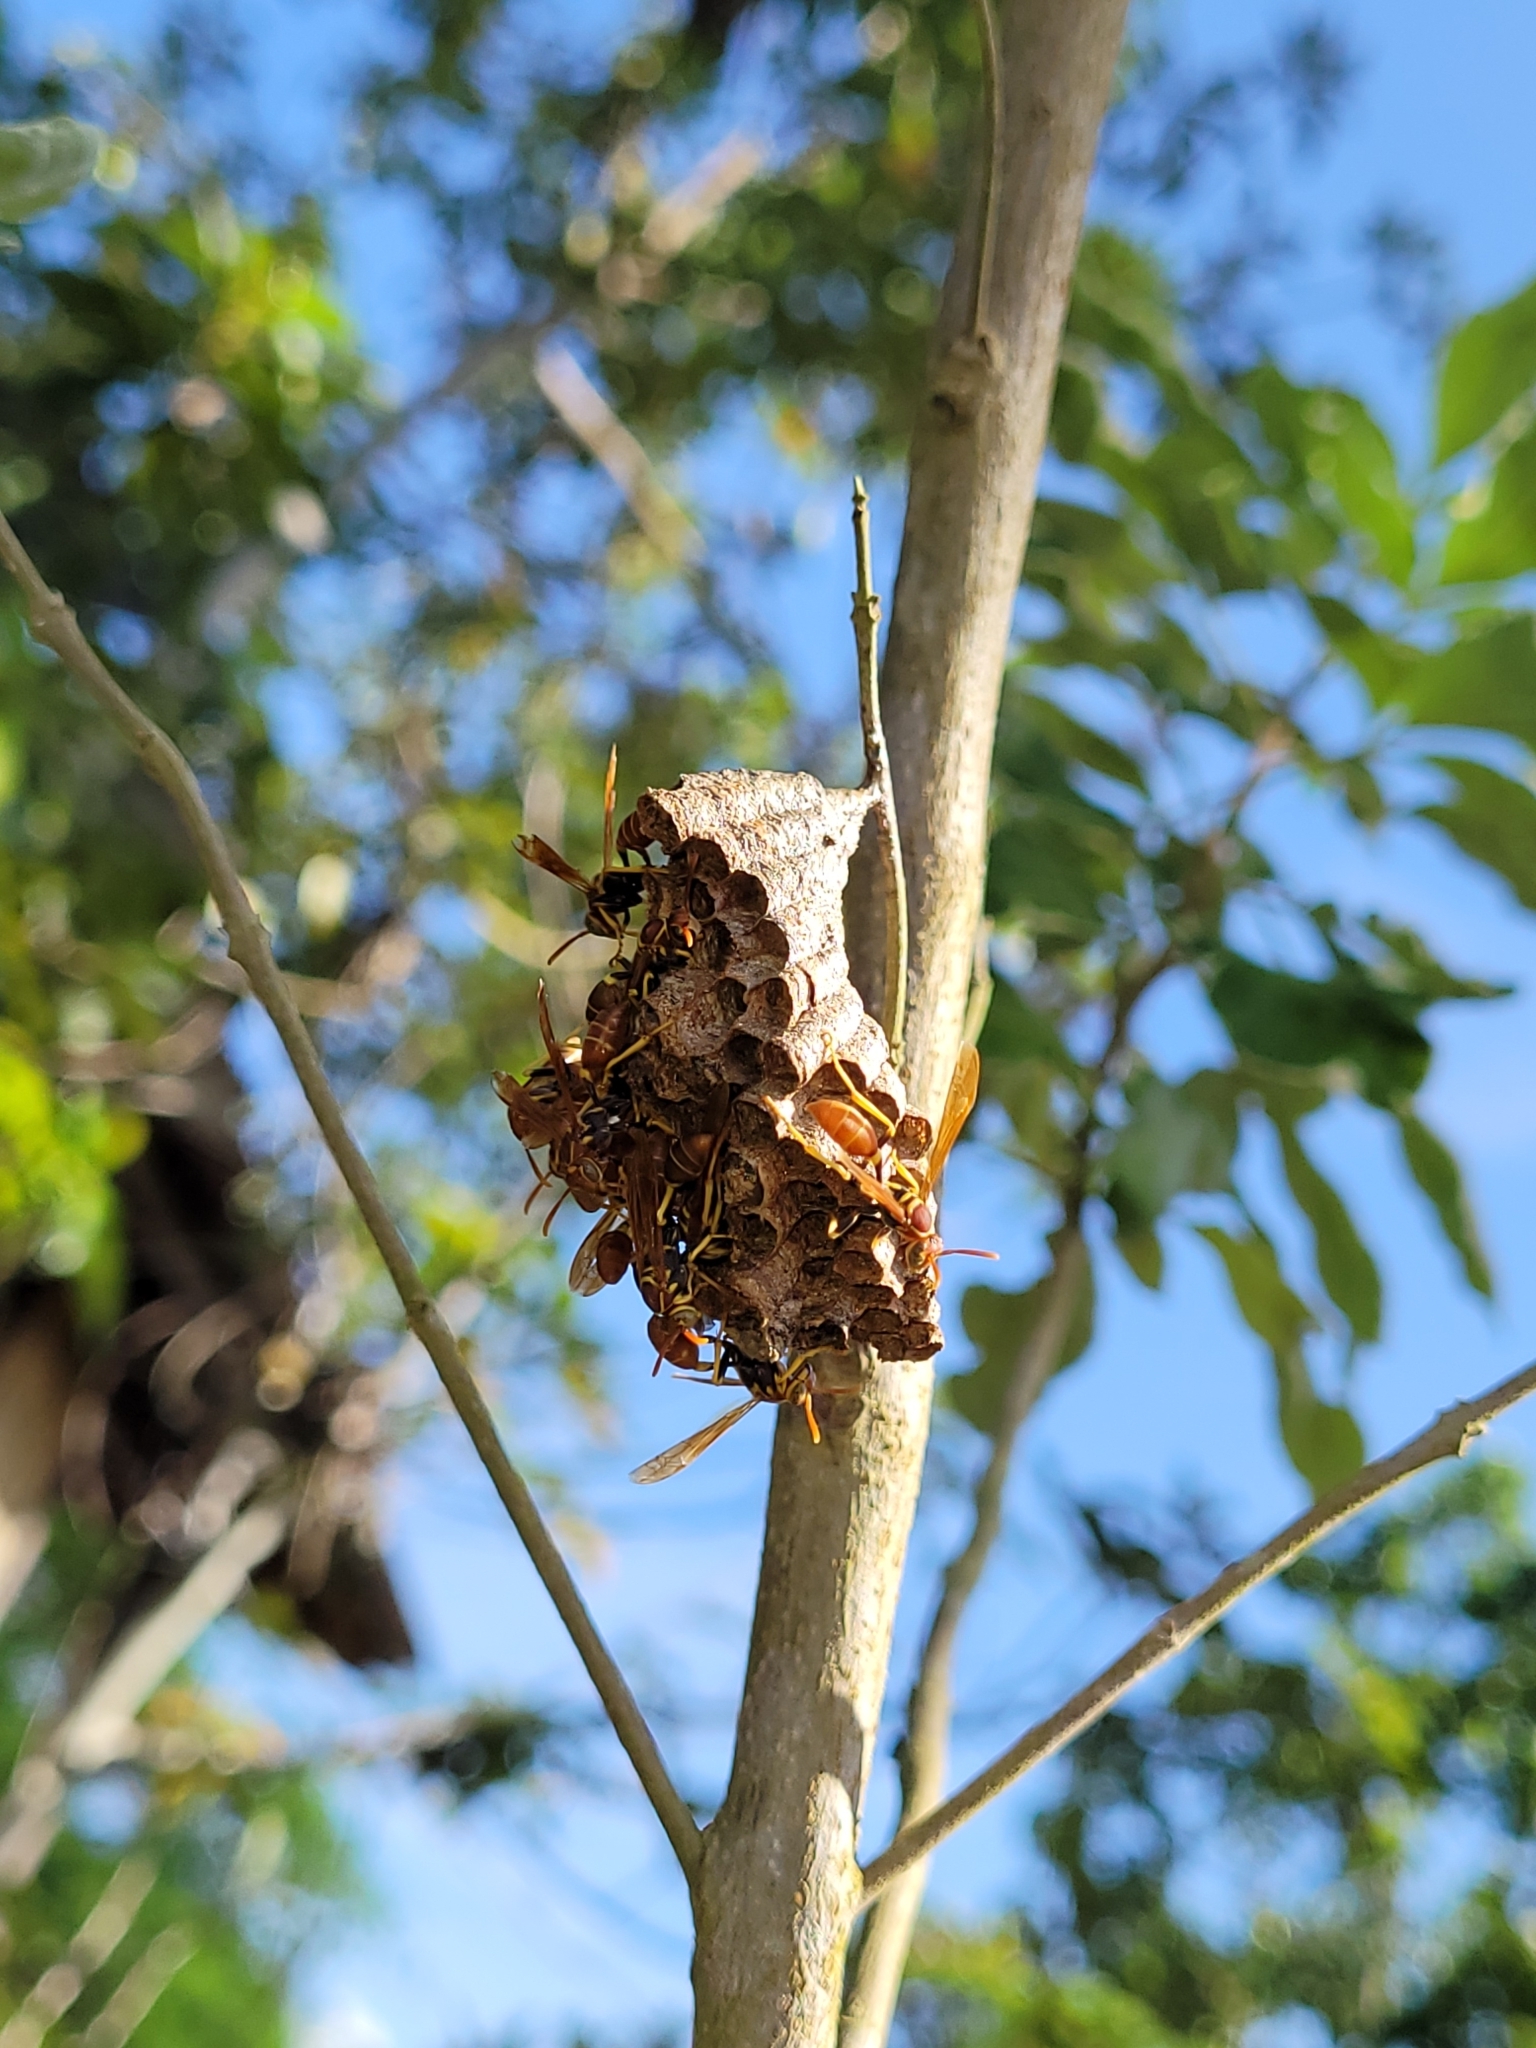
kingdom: Animalia
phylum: Arthropoda
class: Insecta
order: Hymenoptera
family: Vespidae
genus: Mischocyttarus
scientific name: Mischocyttarus phthisicus
